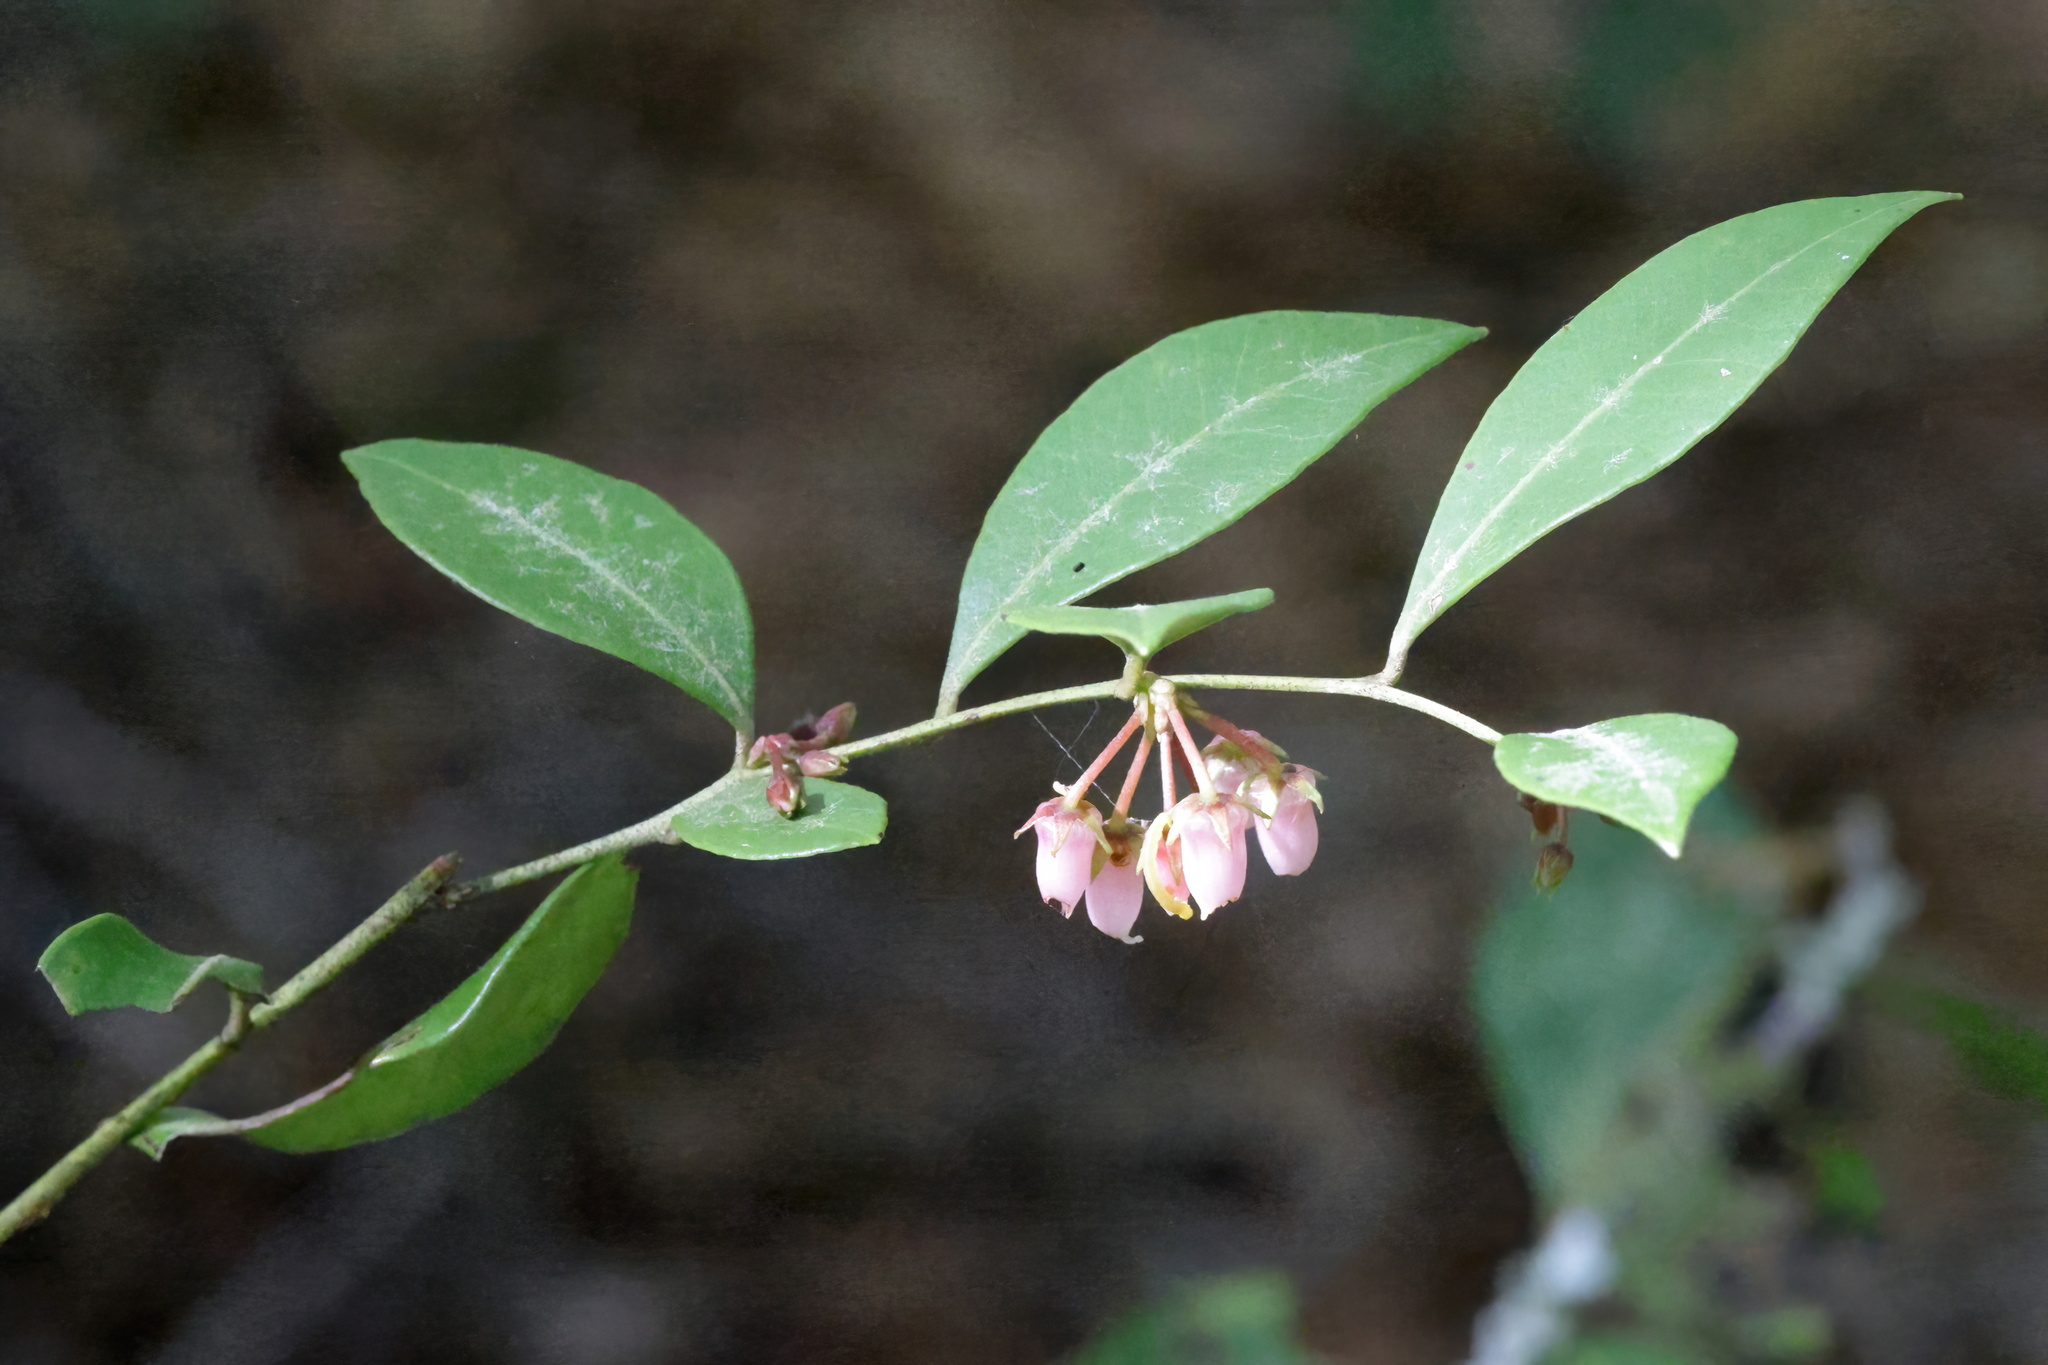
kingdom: Plantae
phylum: Tracheophyta
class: Magnoliopsida
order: Ericales
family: Ericaceae
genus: Lyonia
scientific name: Lyonia lucida
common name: Fetterbush
